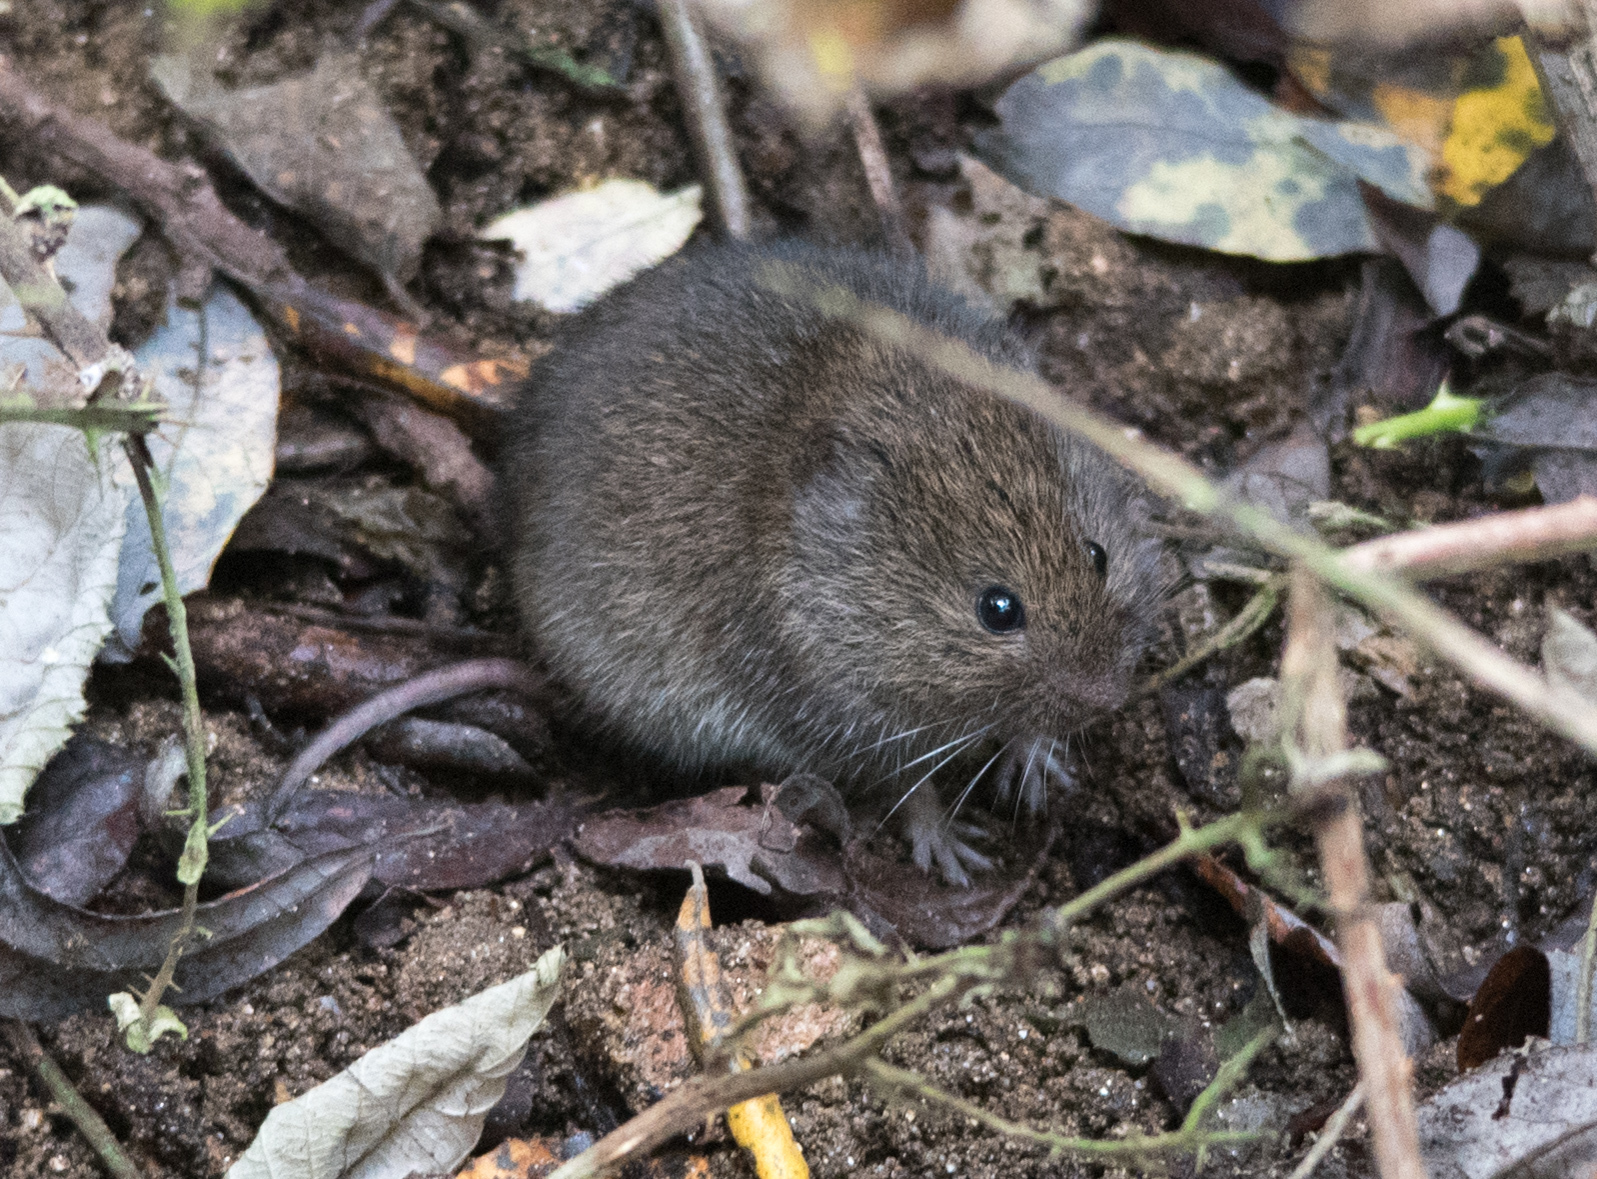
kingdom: Animalia
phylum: Chordata
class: Mammalia
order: Rodentia
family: Cricetidae
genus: Microtus
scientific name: Microtus californicus
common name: California vole
